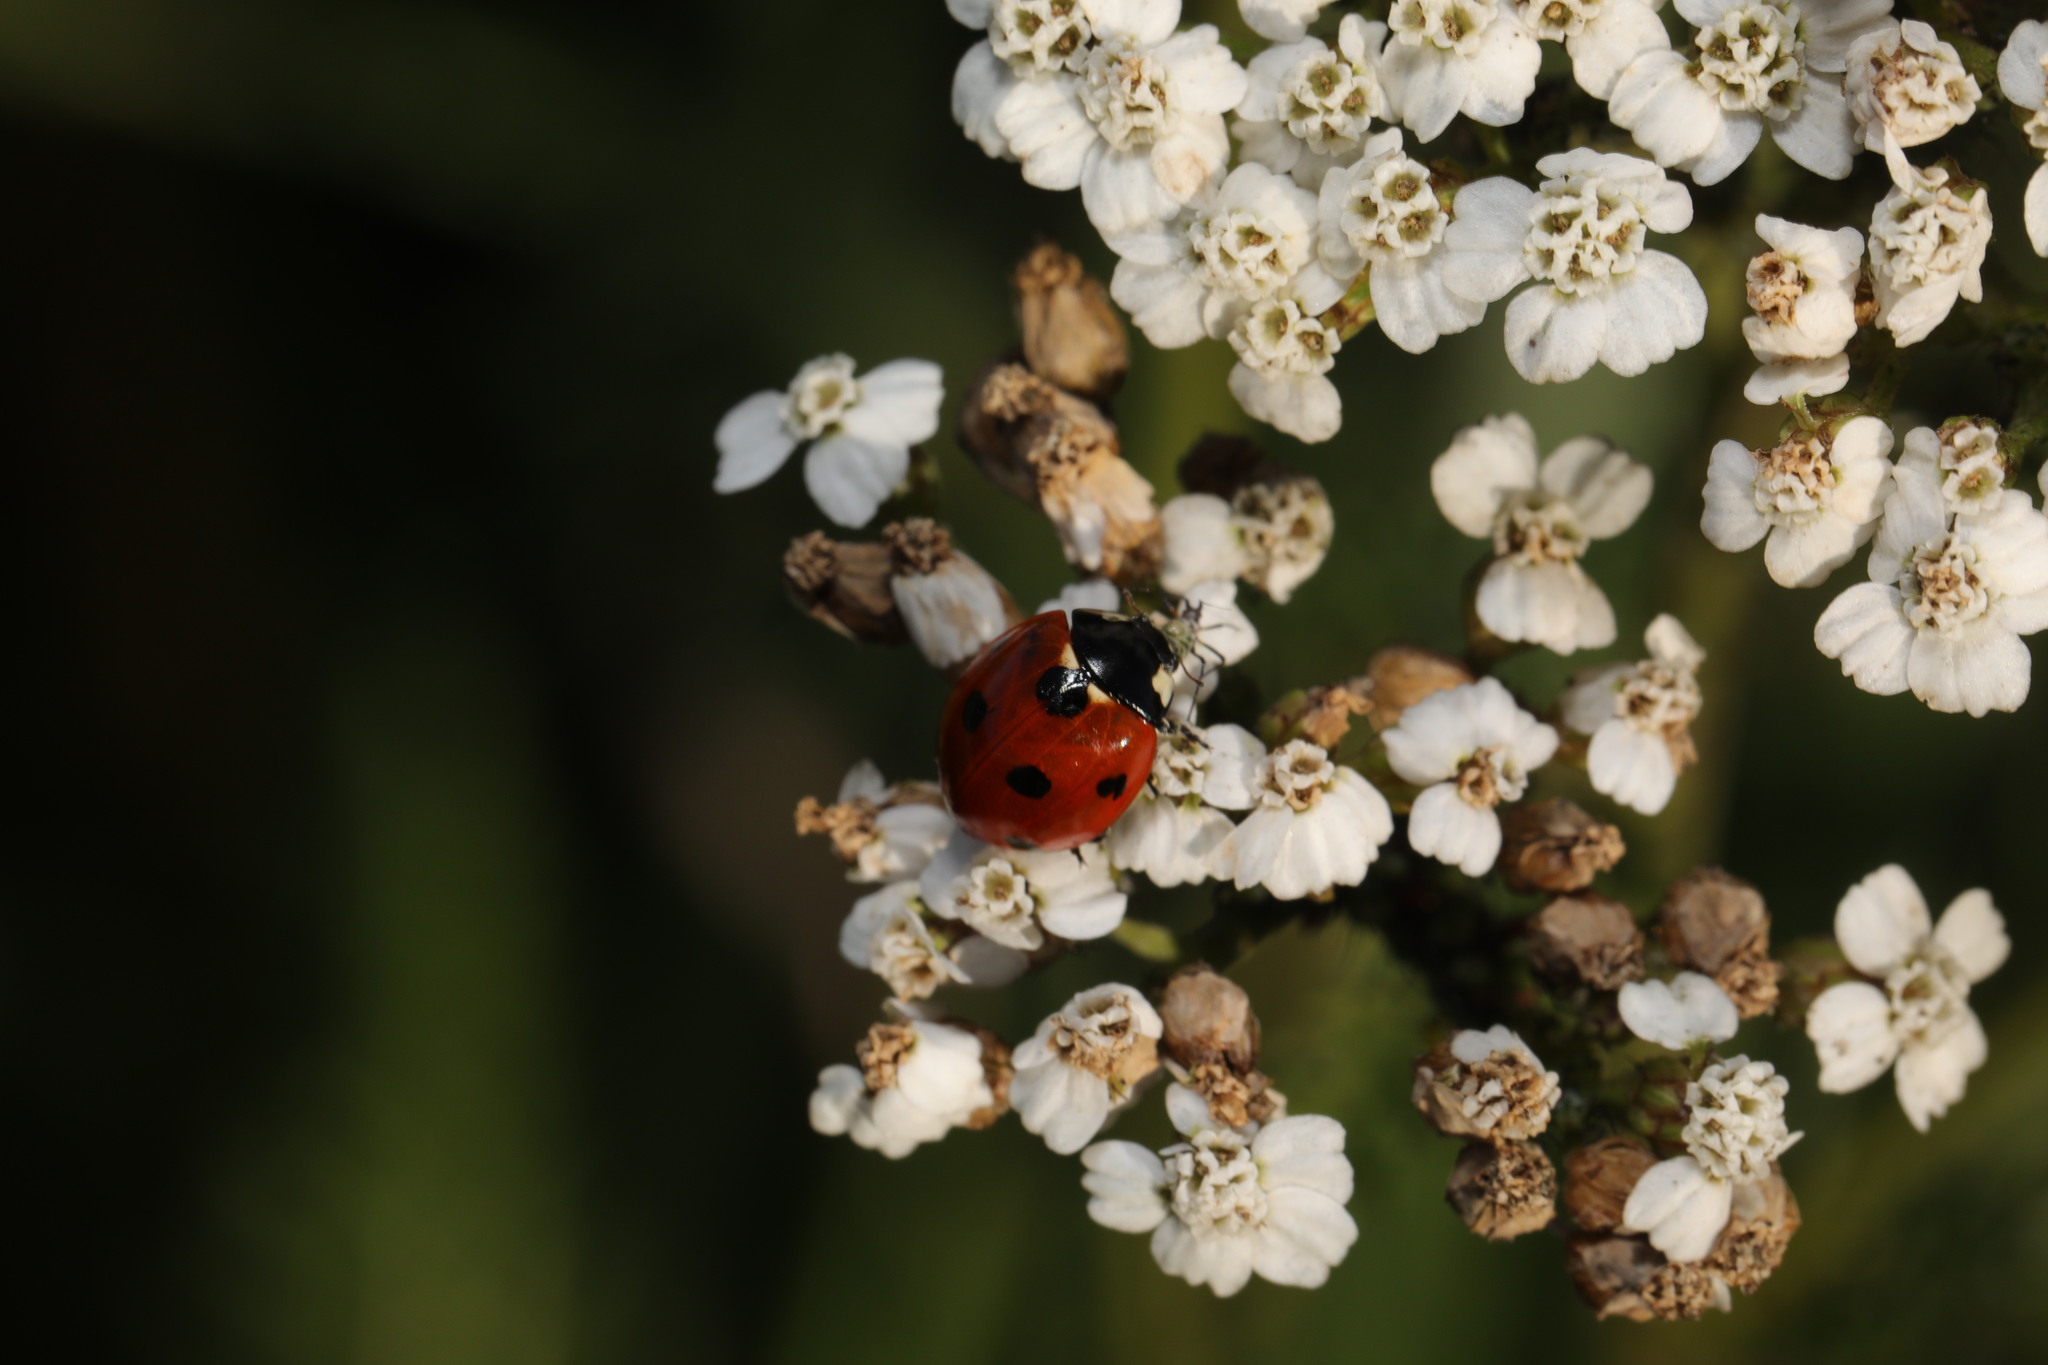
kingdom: Animalia
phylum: Arthropoda
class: Insecta
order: Coleoptera
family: Coccinellidae
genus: Coccinella
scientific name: Coccinella septempunctata
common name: Sevenspotted lady beetle
